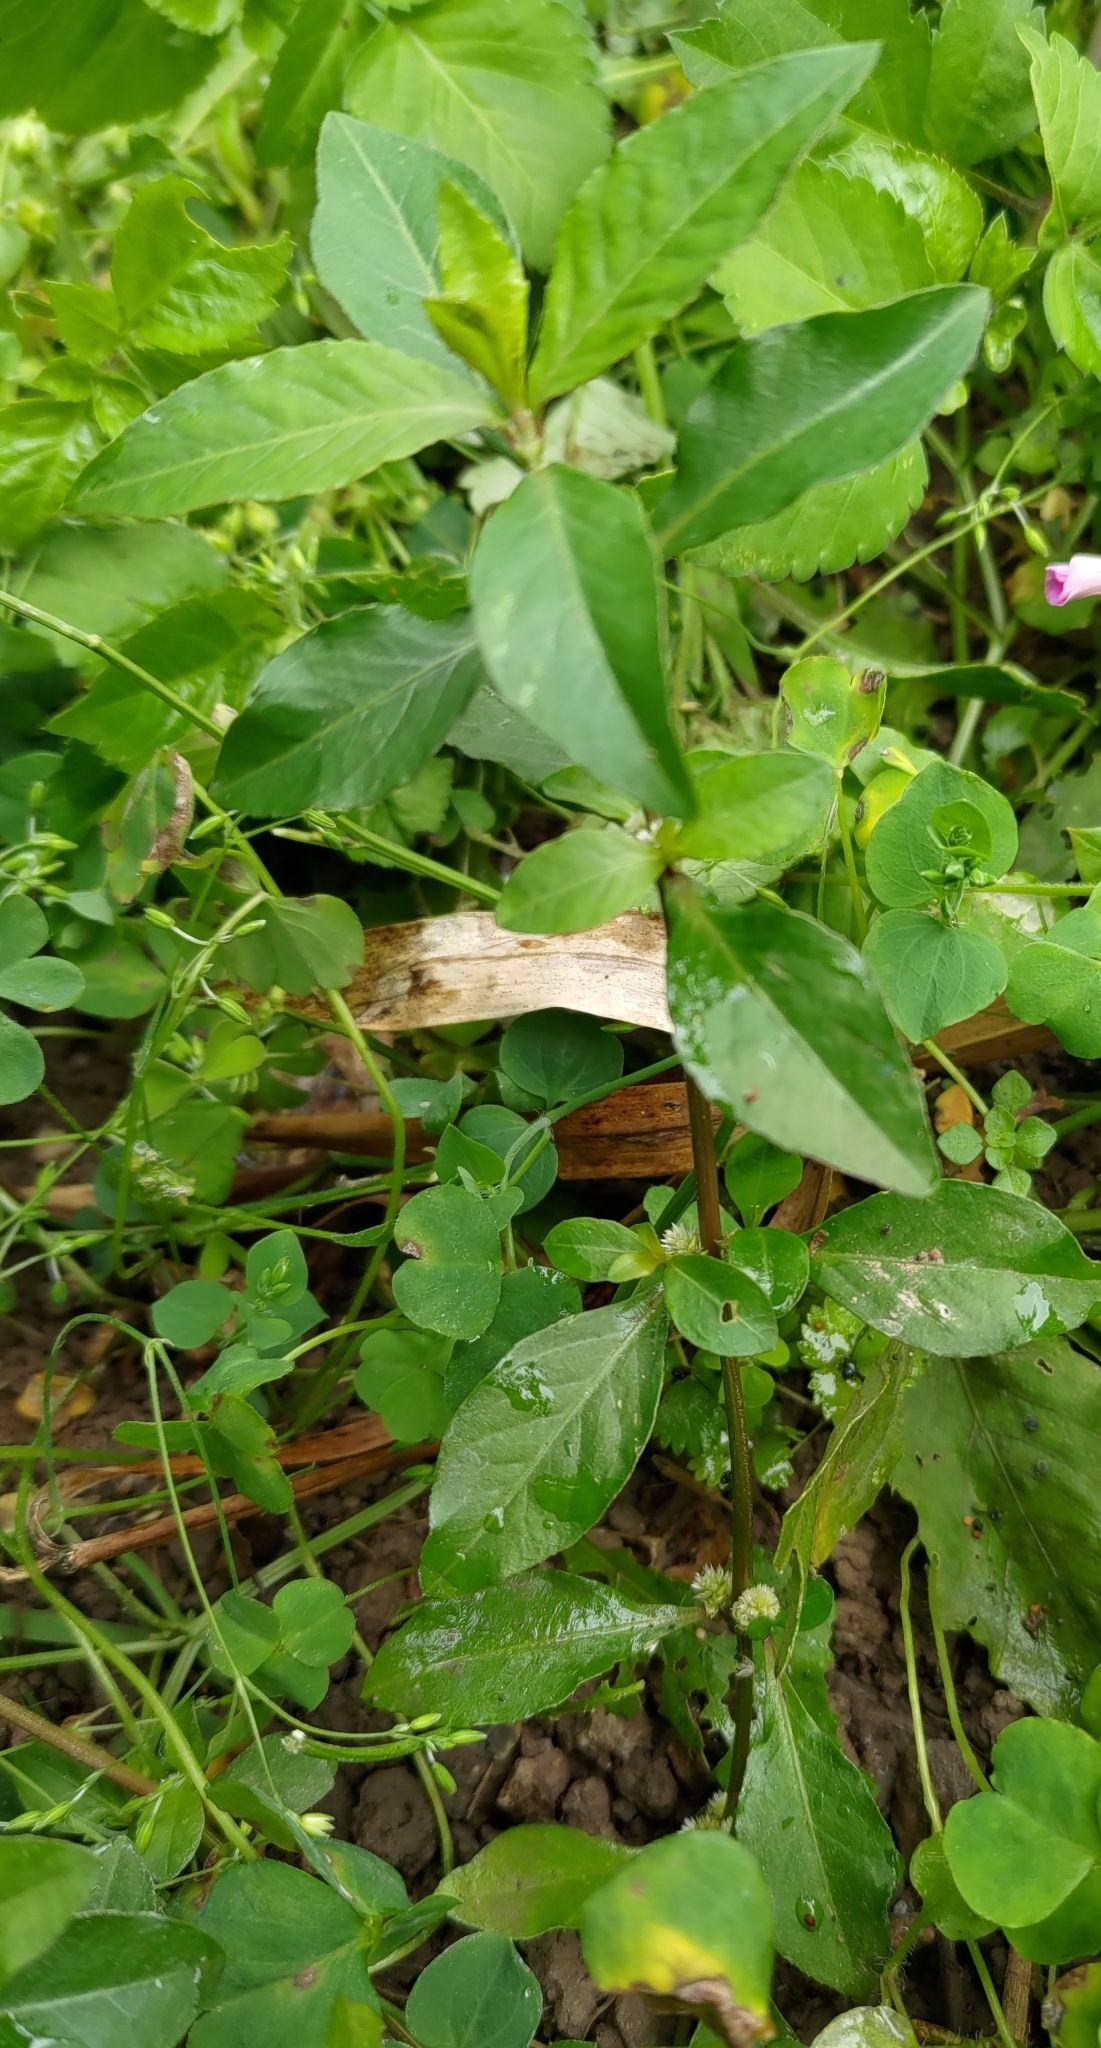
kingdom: Plantae
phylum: Tracheophyta
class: Magnoliopsida
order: Caryophyllales
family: Amaranthaceae
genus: Alternanthera
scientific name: Alternanthera sessilis
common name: Sessile joyweed
